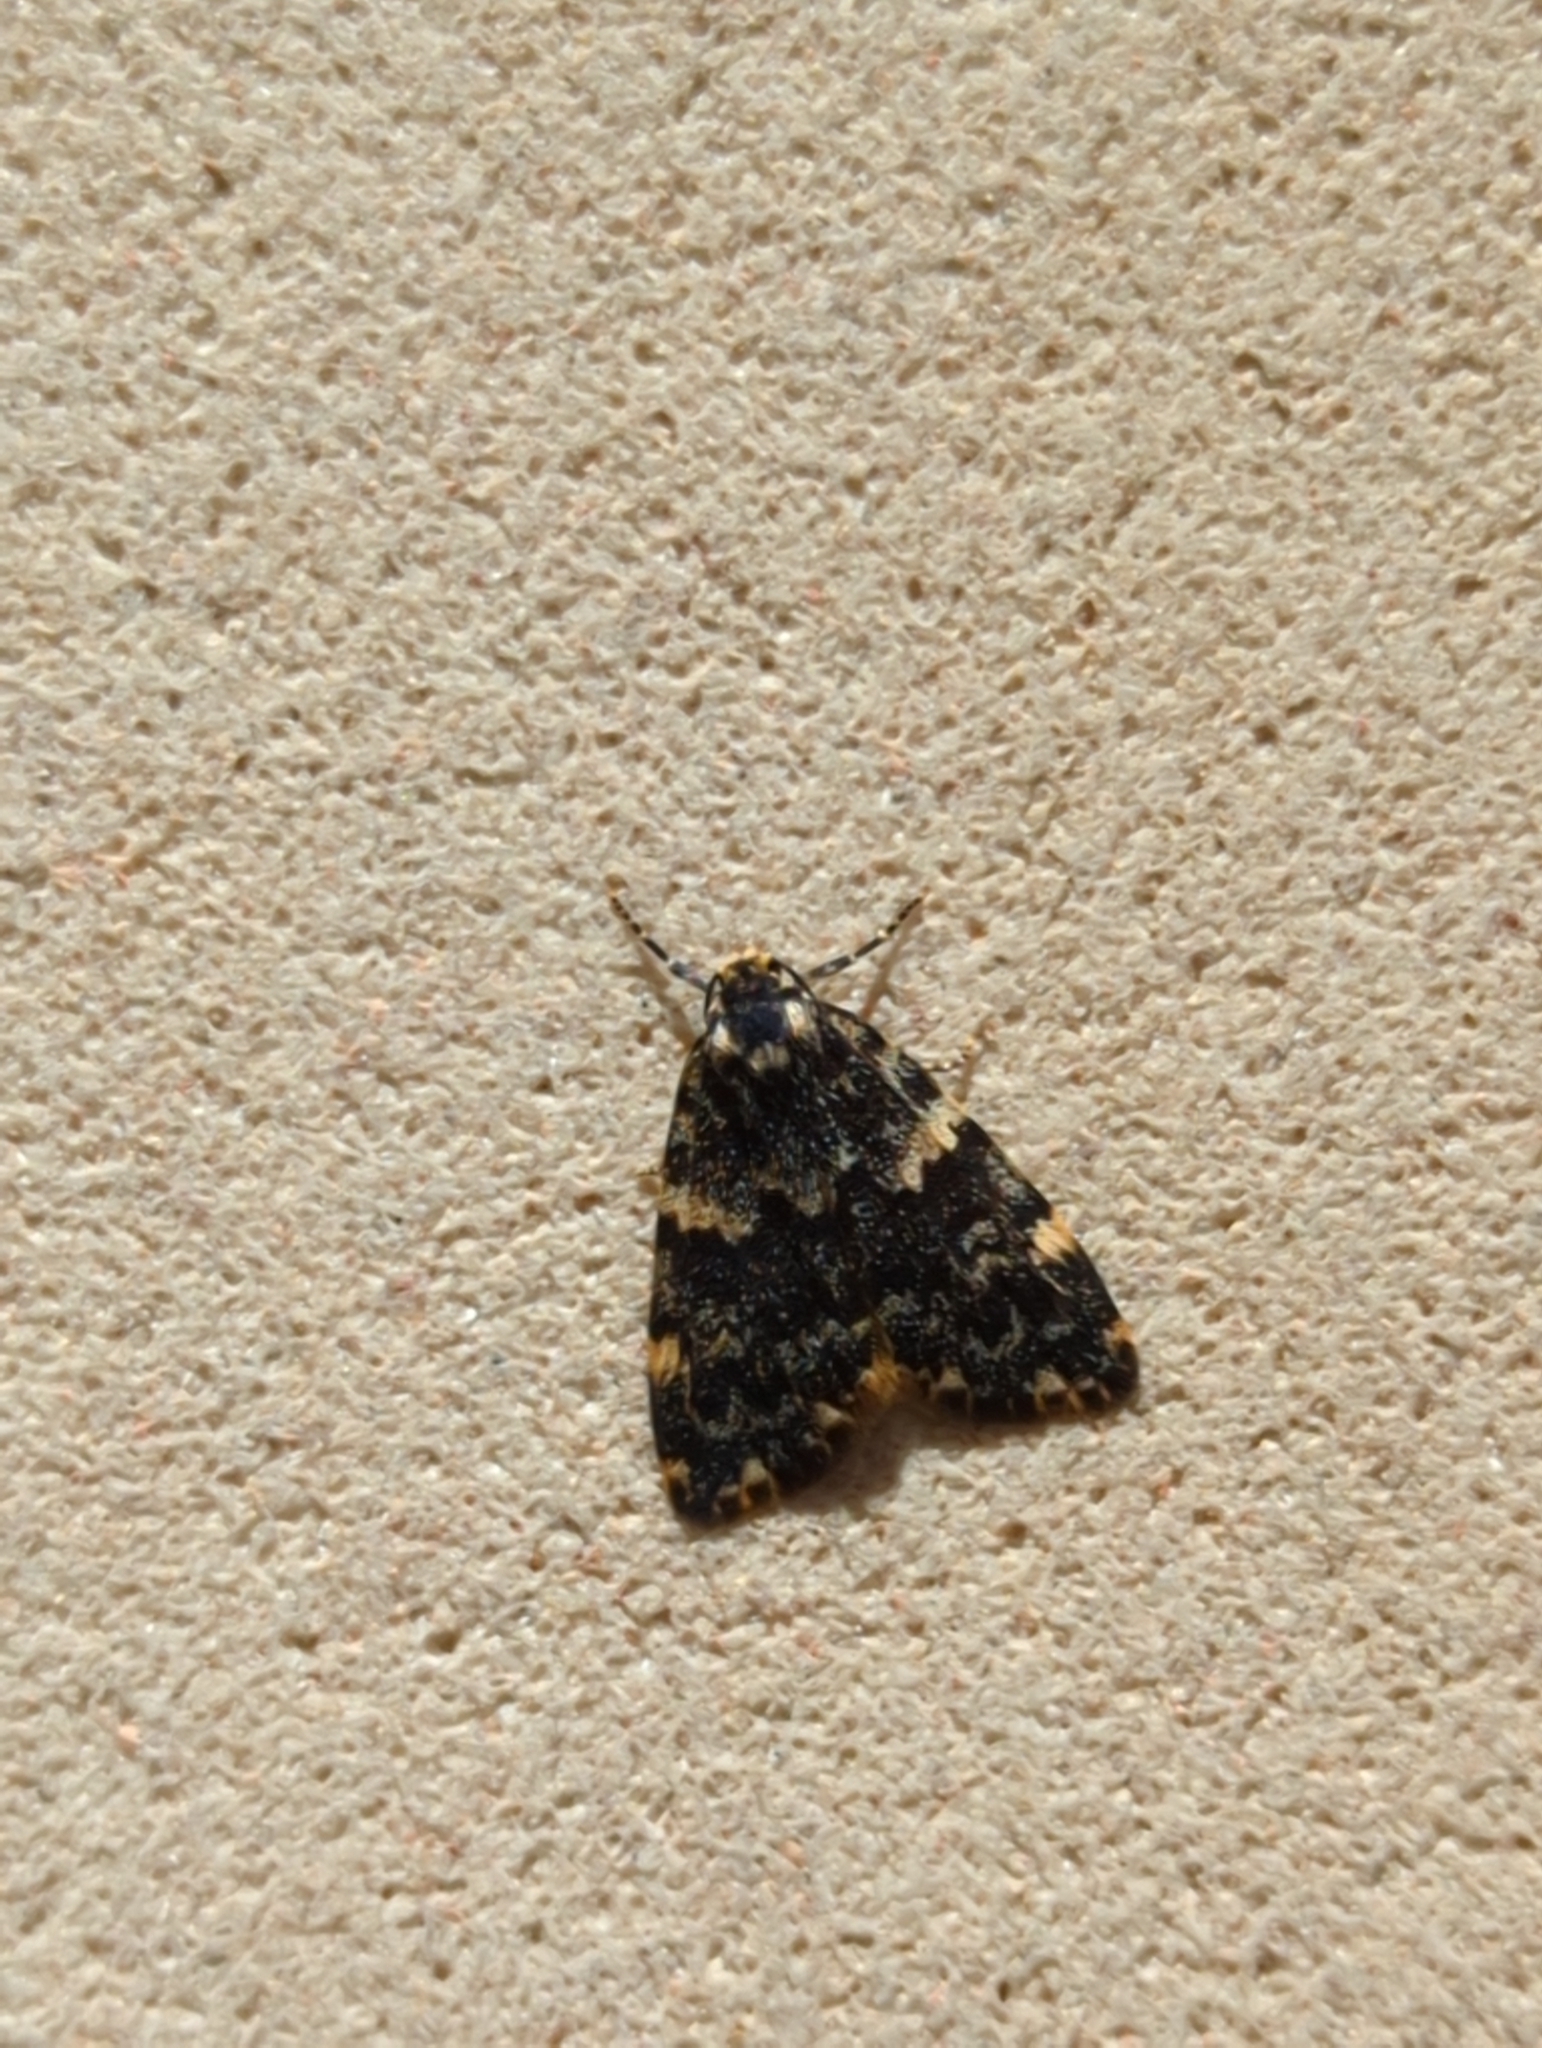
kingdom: Animalia
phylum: Arthropoda
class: Insecta
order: Lepidoptera
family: Erebidae
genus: Halone
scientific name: Halone coryphoea
